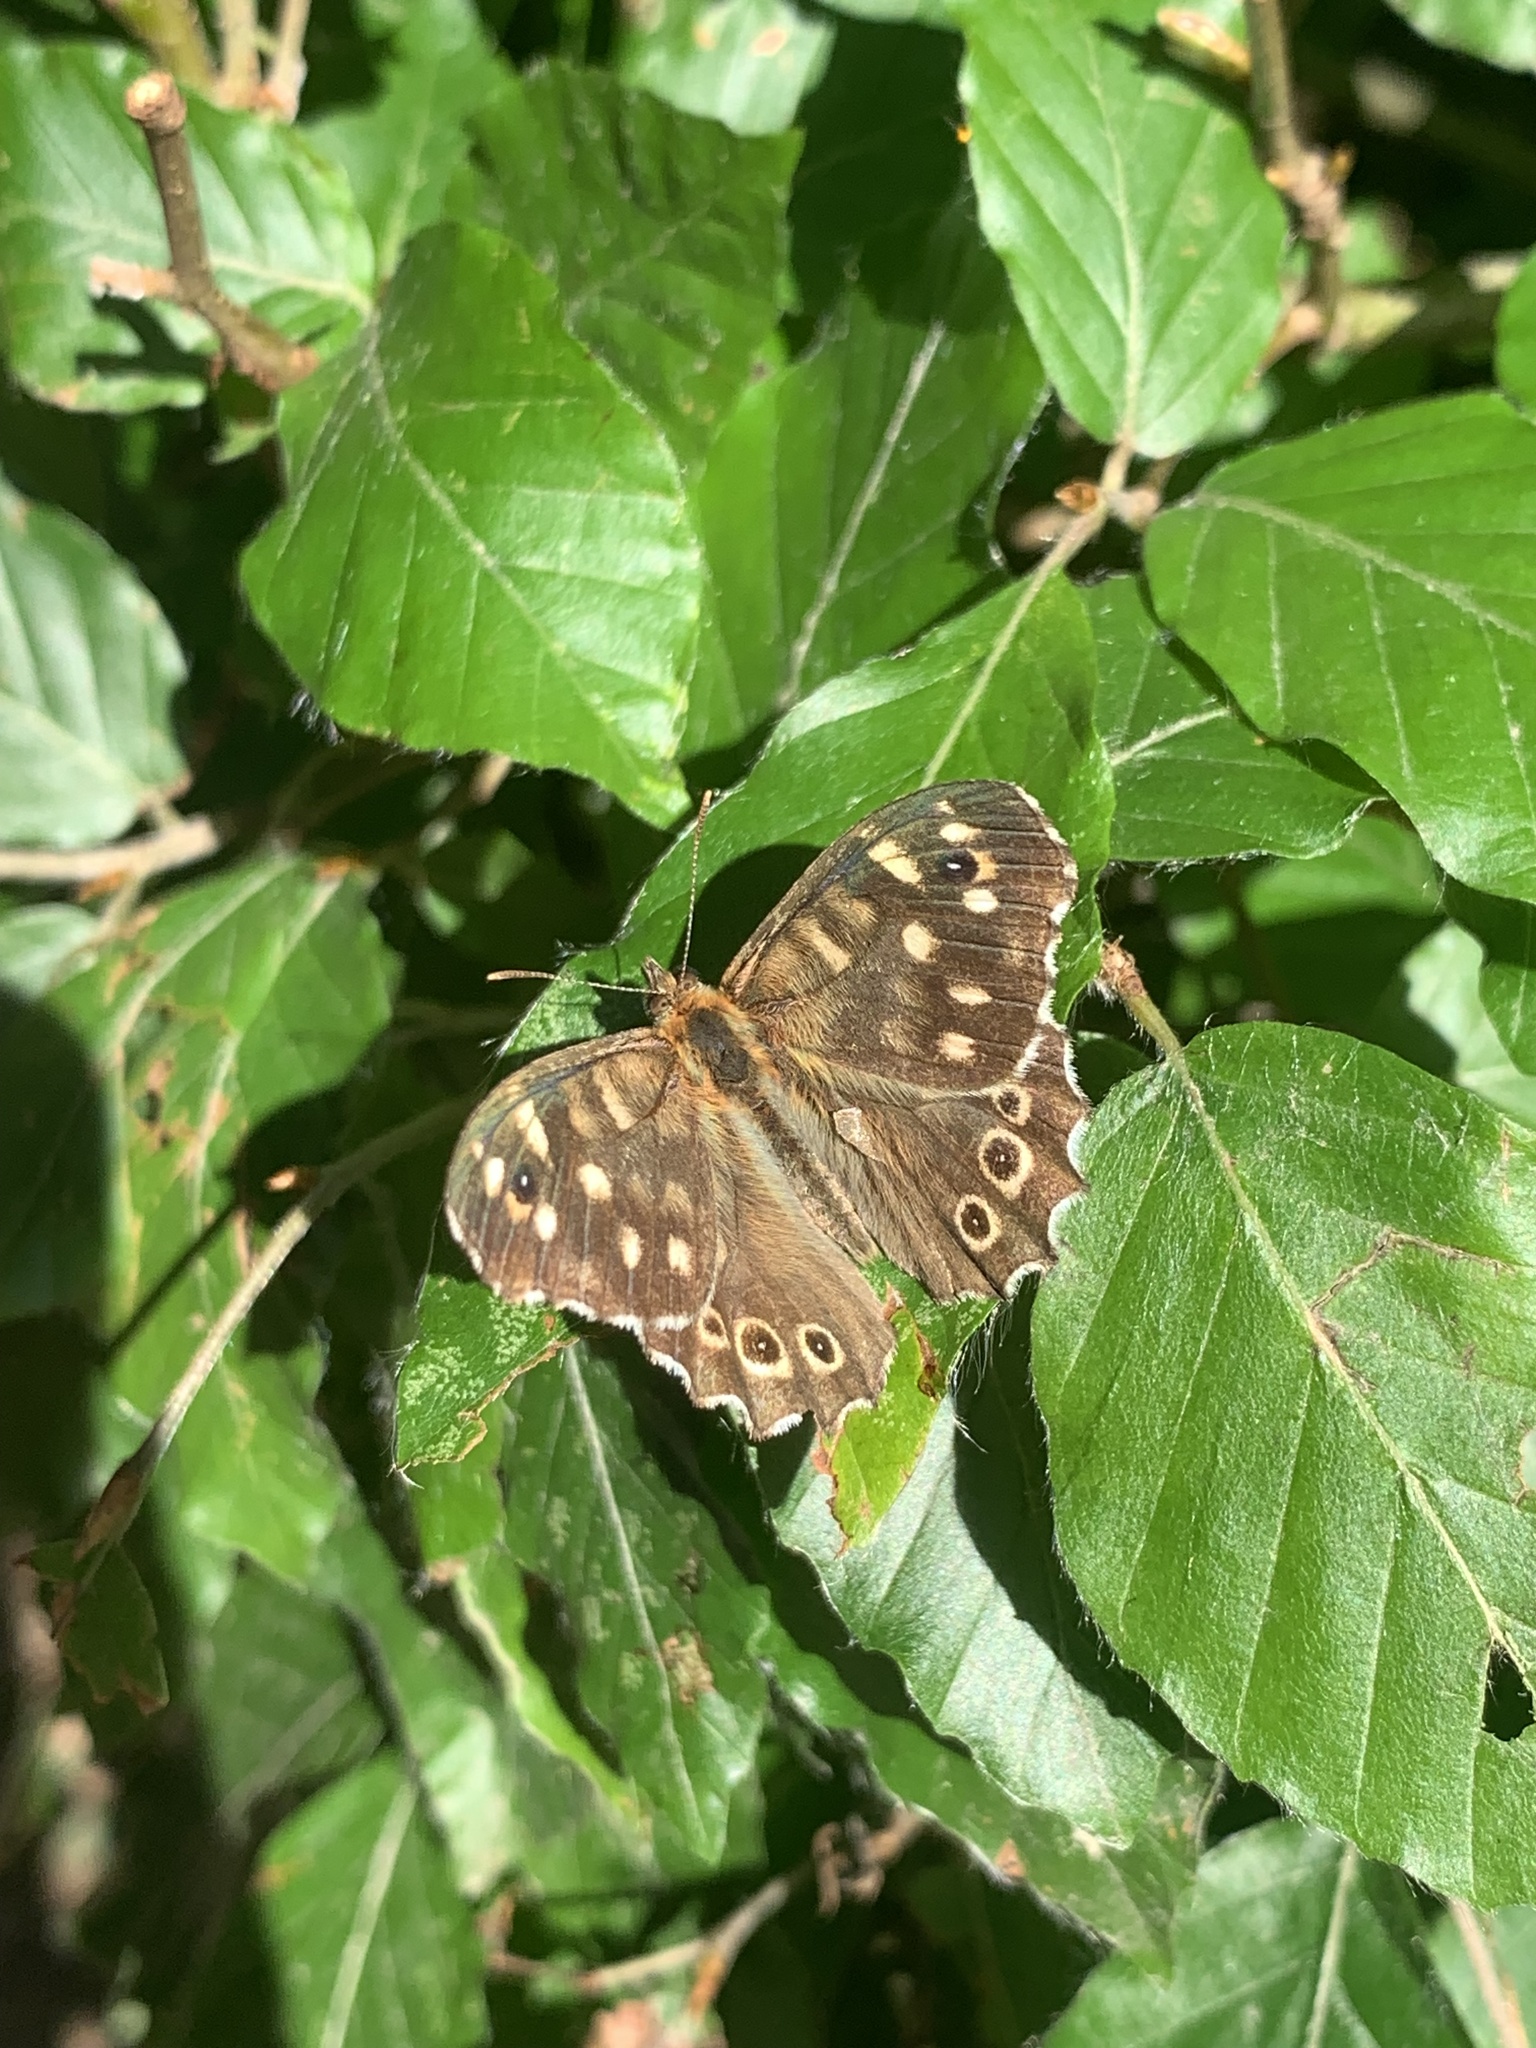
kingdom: Animalia
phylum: Arthropoda
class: Insecta
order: Lepidoptera
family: Nymphalidae
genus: Pararge
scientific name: Pararge aegeria
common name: Speckled wood
